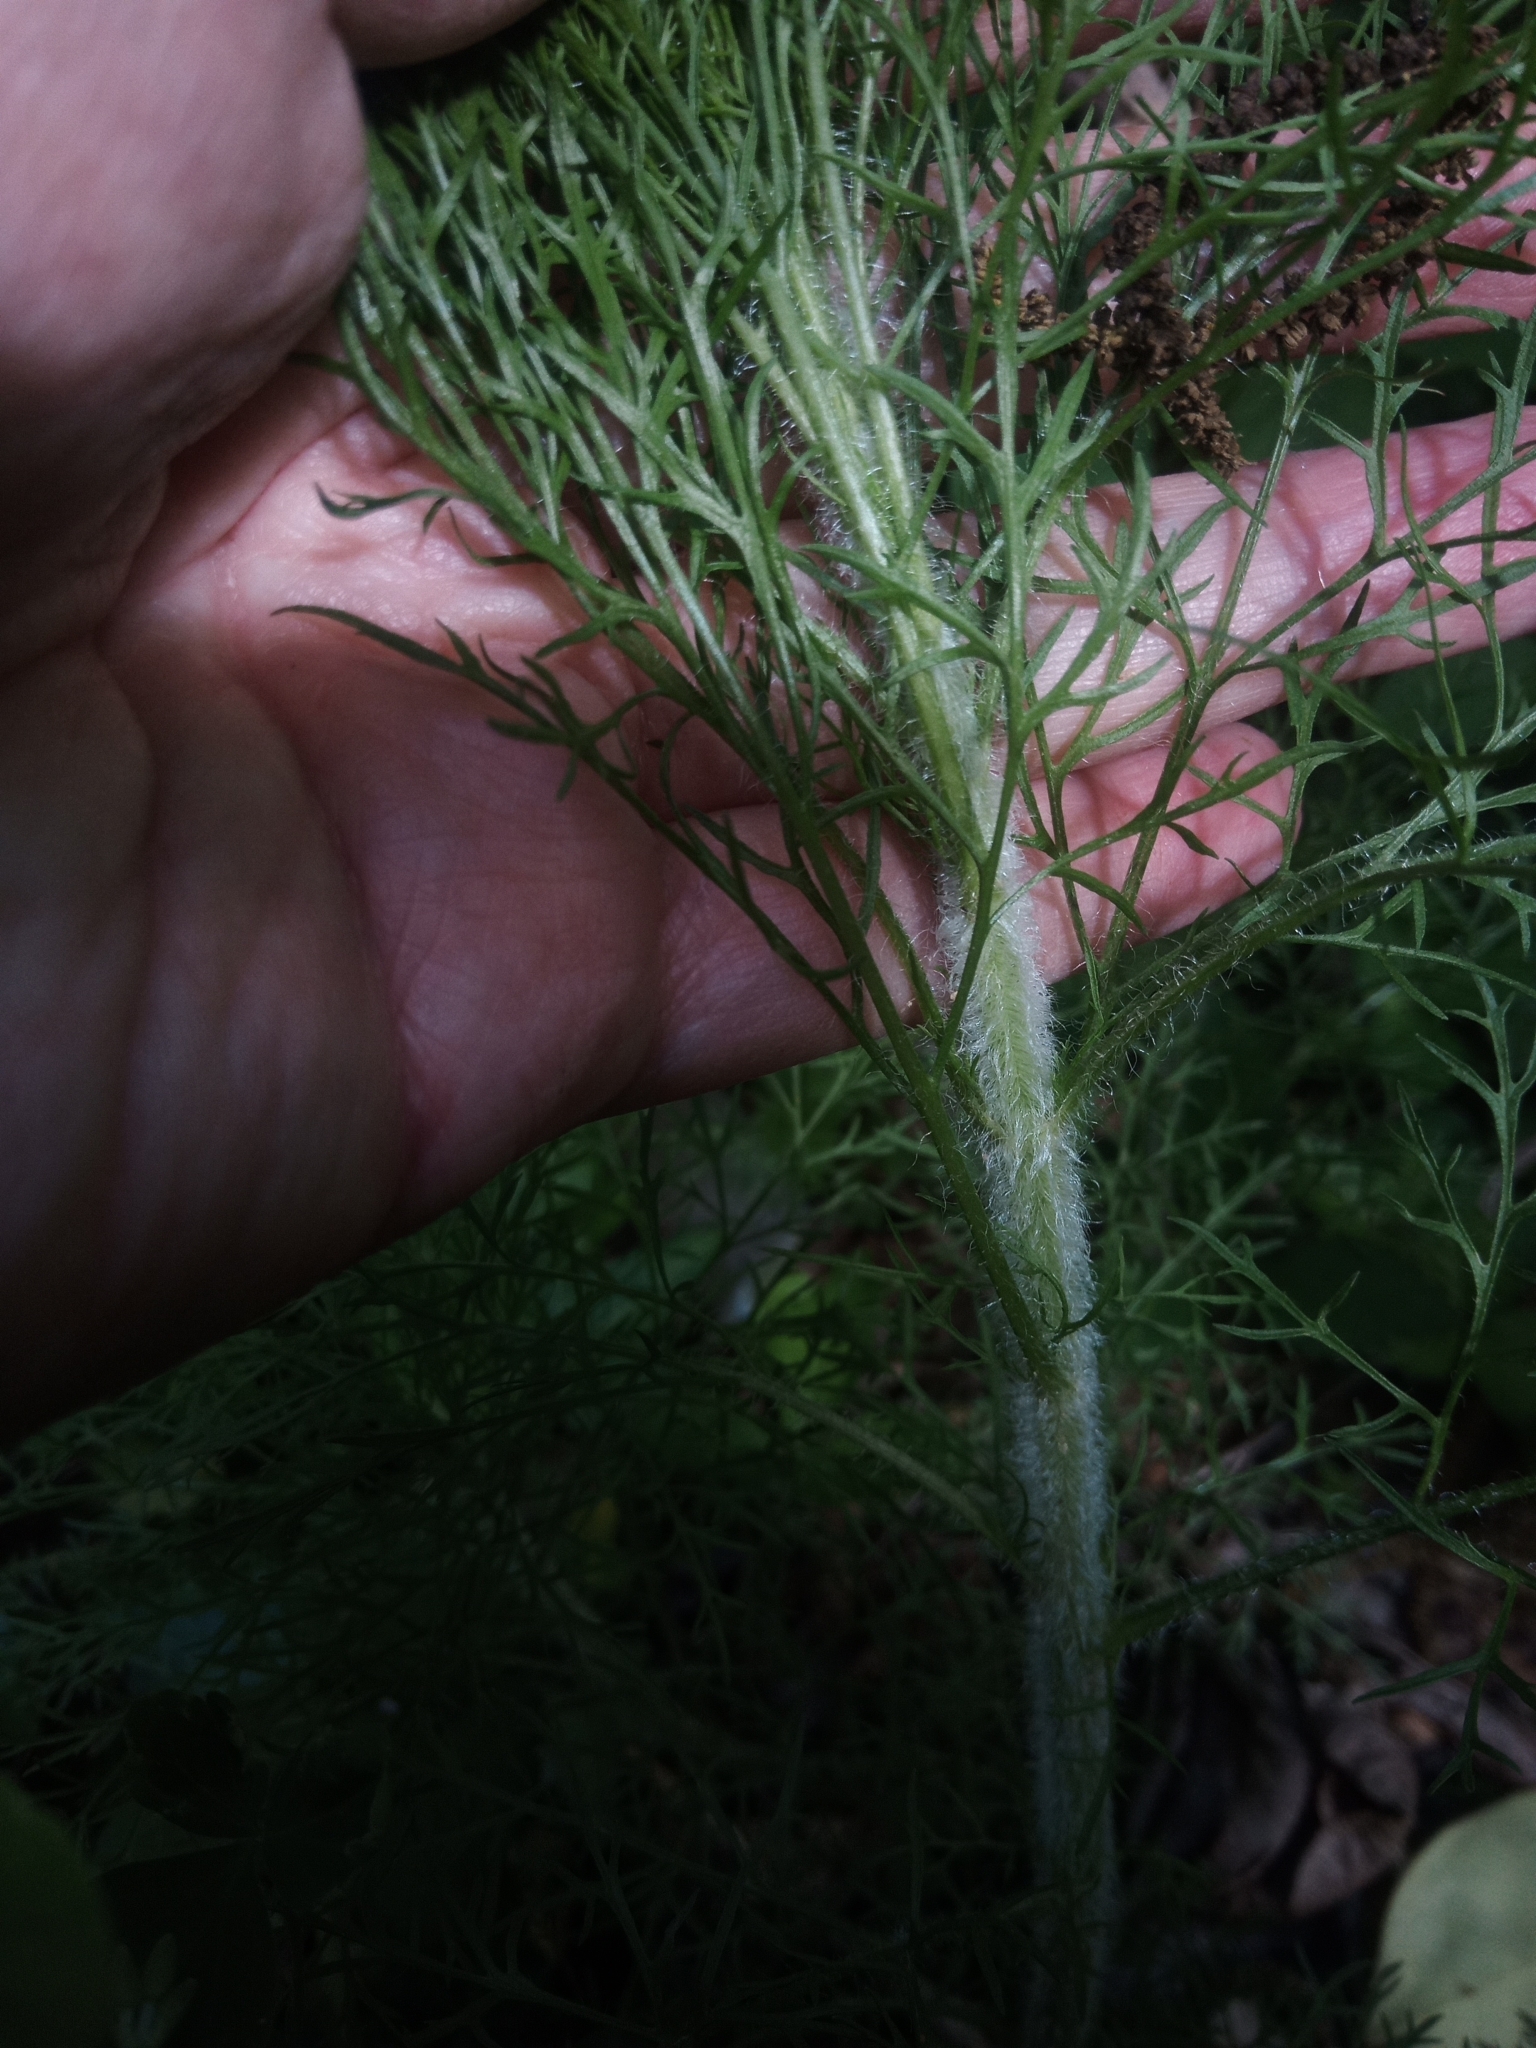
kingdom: Plantae
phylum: Tracheophyta
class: Magnoliopsida
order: Asterales
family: Asteraceae
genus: Eupatorium
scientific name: Eupatorium capillifolium
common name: Dog-fennel
